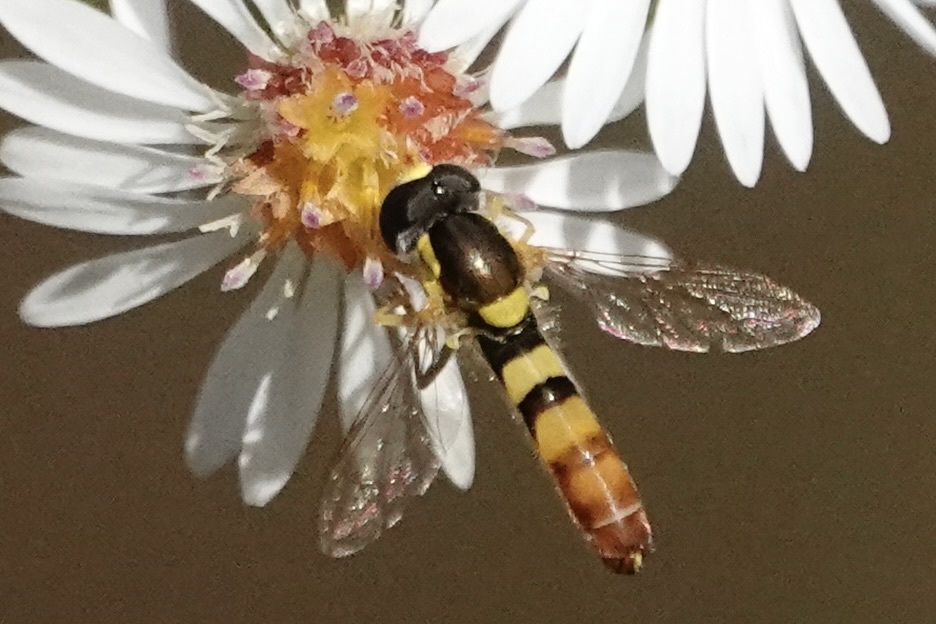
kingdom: Animalia
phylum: Arthropoda
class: Insecta
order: Diptera
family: Syrphidae
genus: Sphaerophoria
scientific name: Sphaerophoria contigua
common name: Tufted globetail
